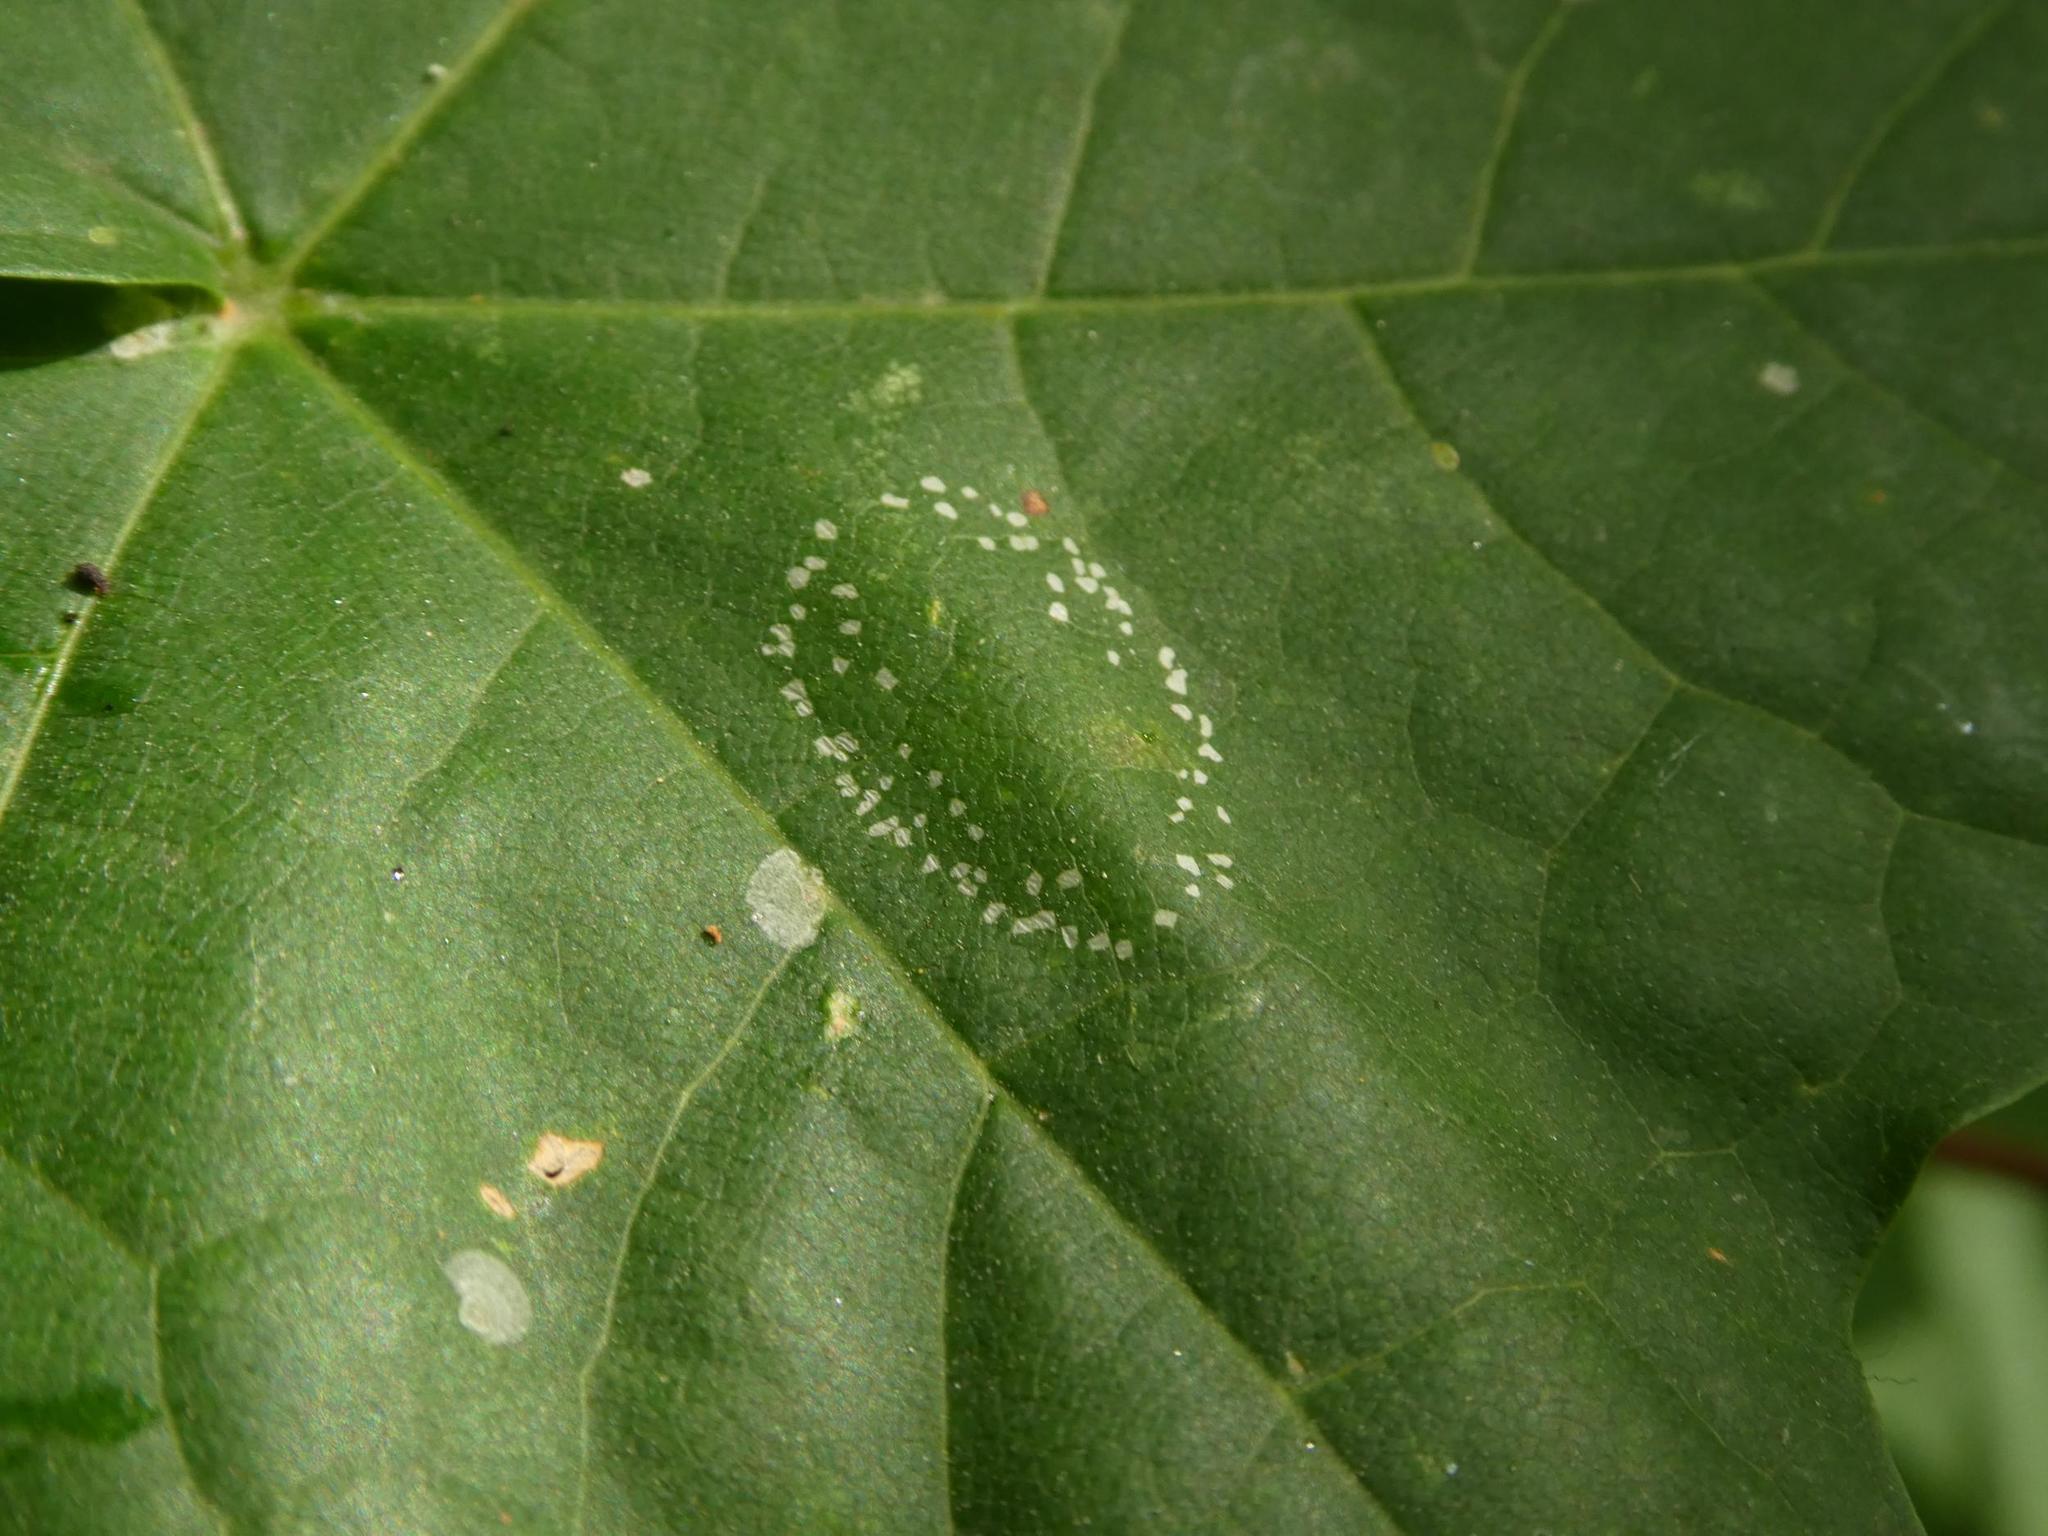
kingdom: Animalia
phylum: Arthropoda
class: Insecta
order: Lepidoptera
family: Gracillariidae
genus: Phyllonorycter
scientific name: Phyllonorycter joannisi
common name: White-bodied midget
